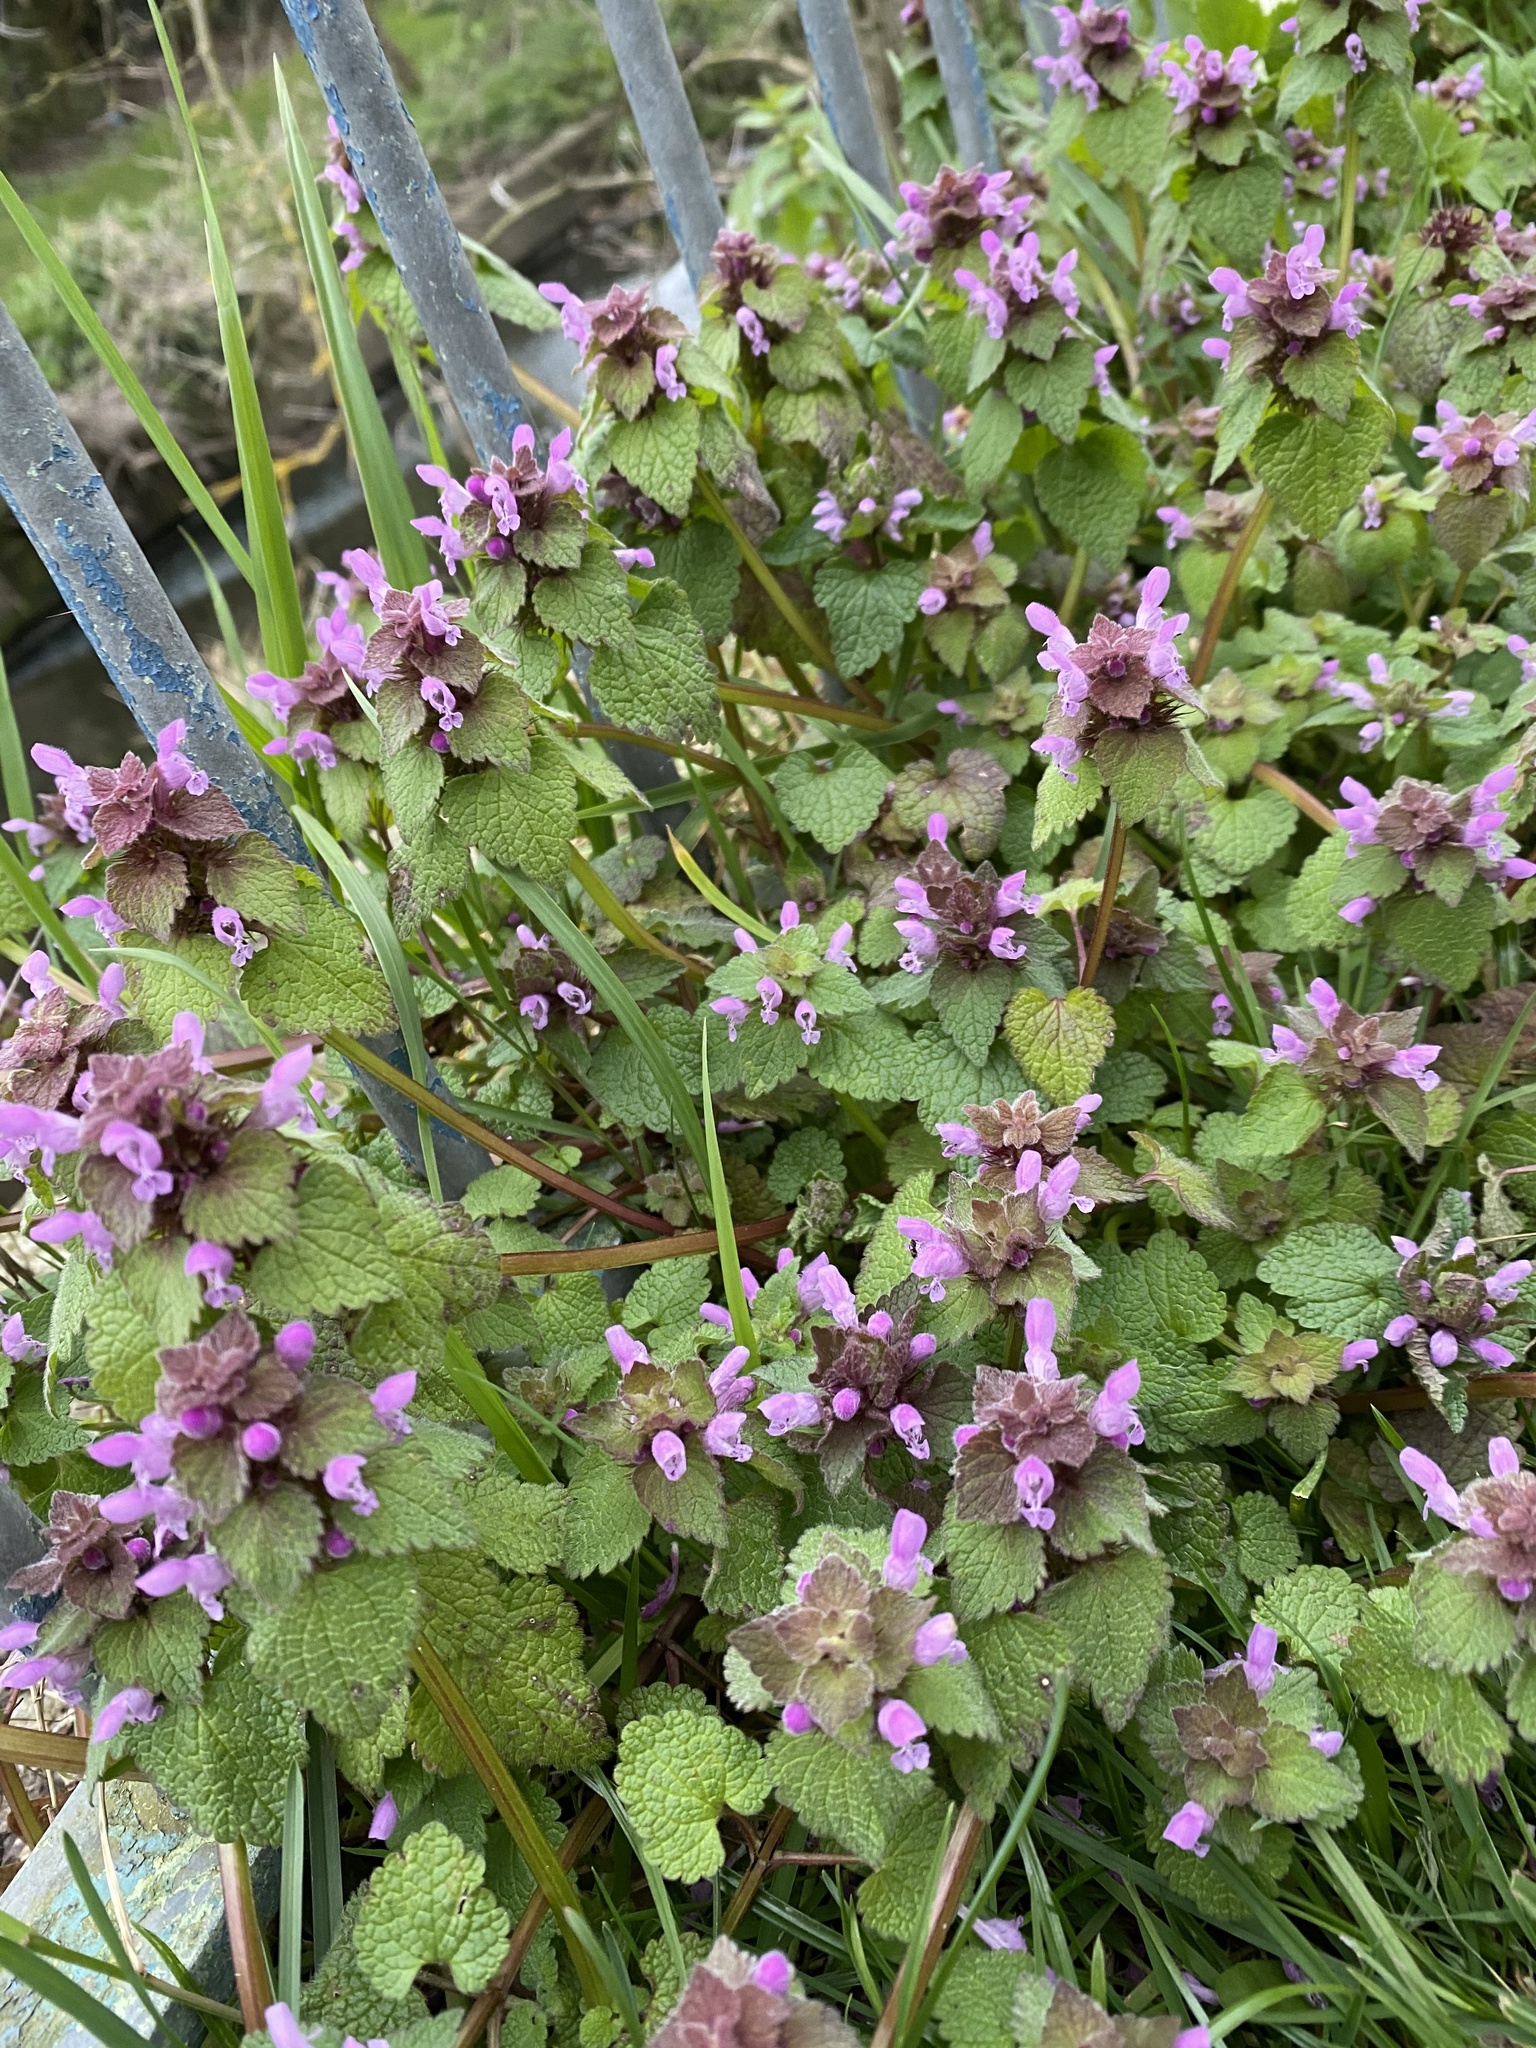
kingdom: Plantae
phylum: Tracheophyta
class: Magnoliopsida
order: Lamiales
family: Lamiaceae
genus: Lamium
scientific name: Lamium purpureum
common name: Red dead-nettle
